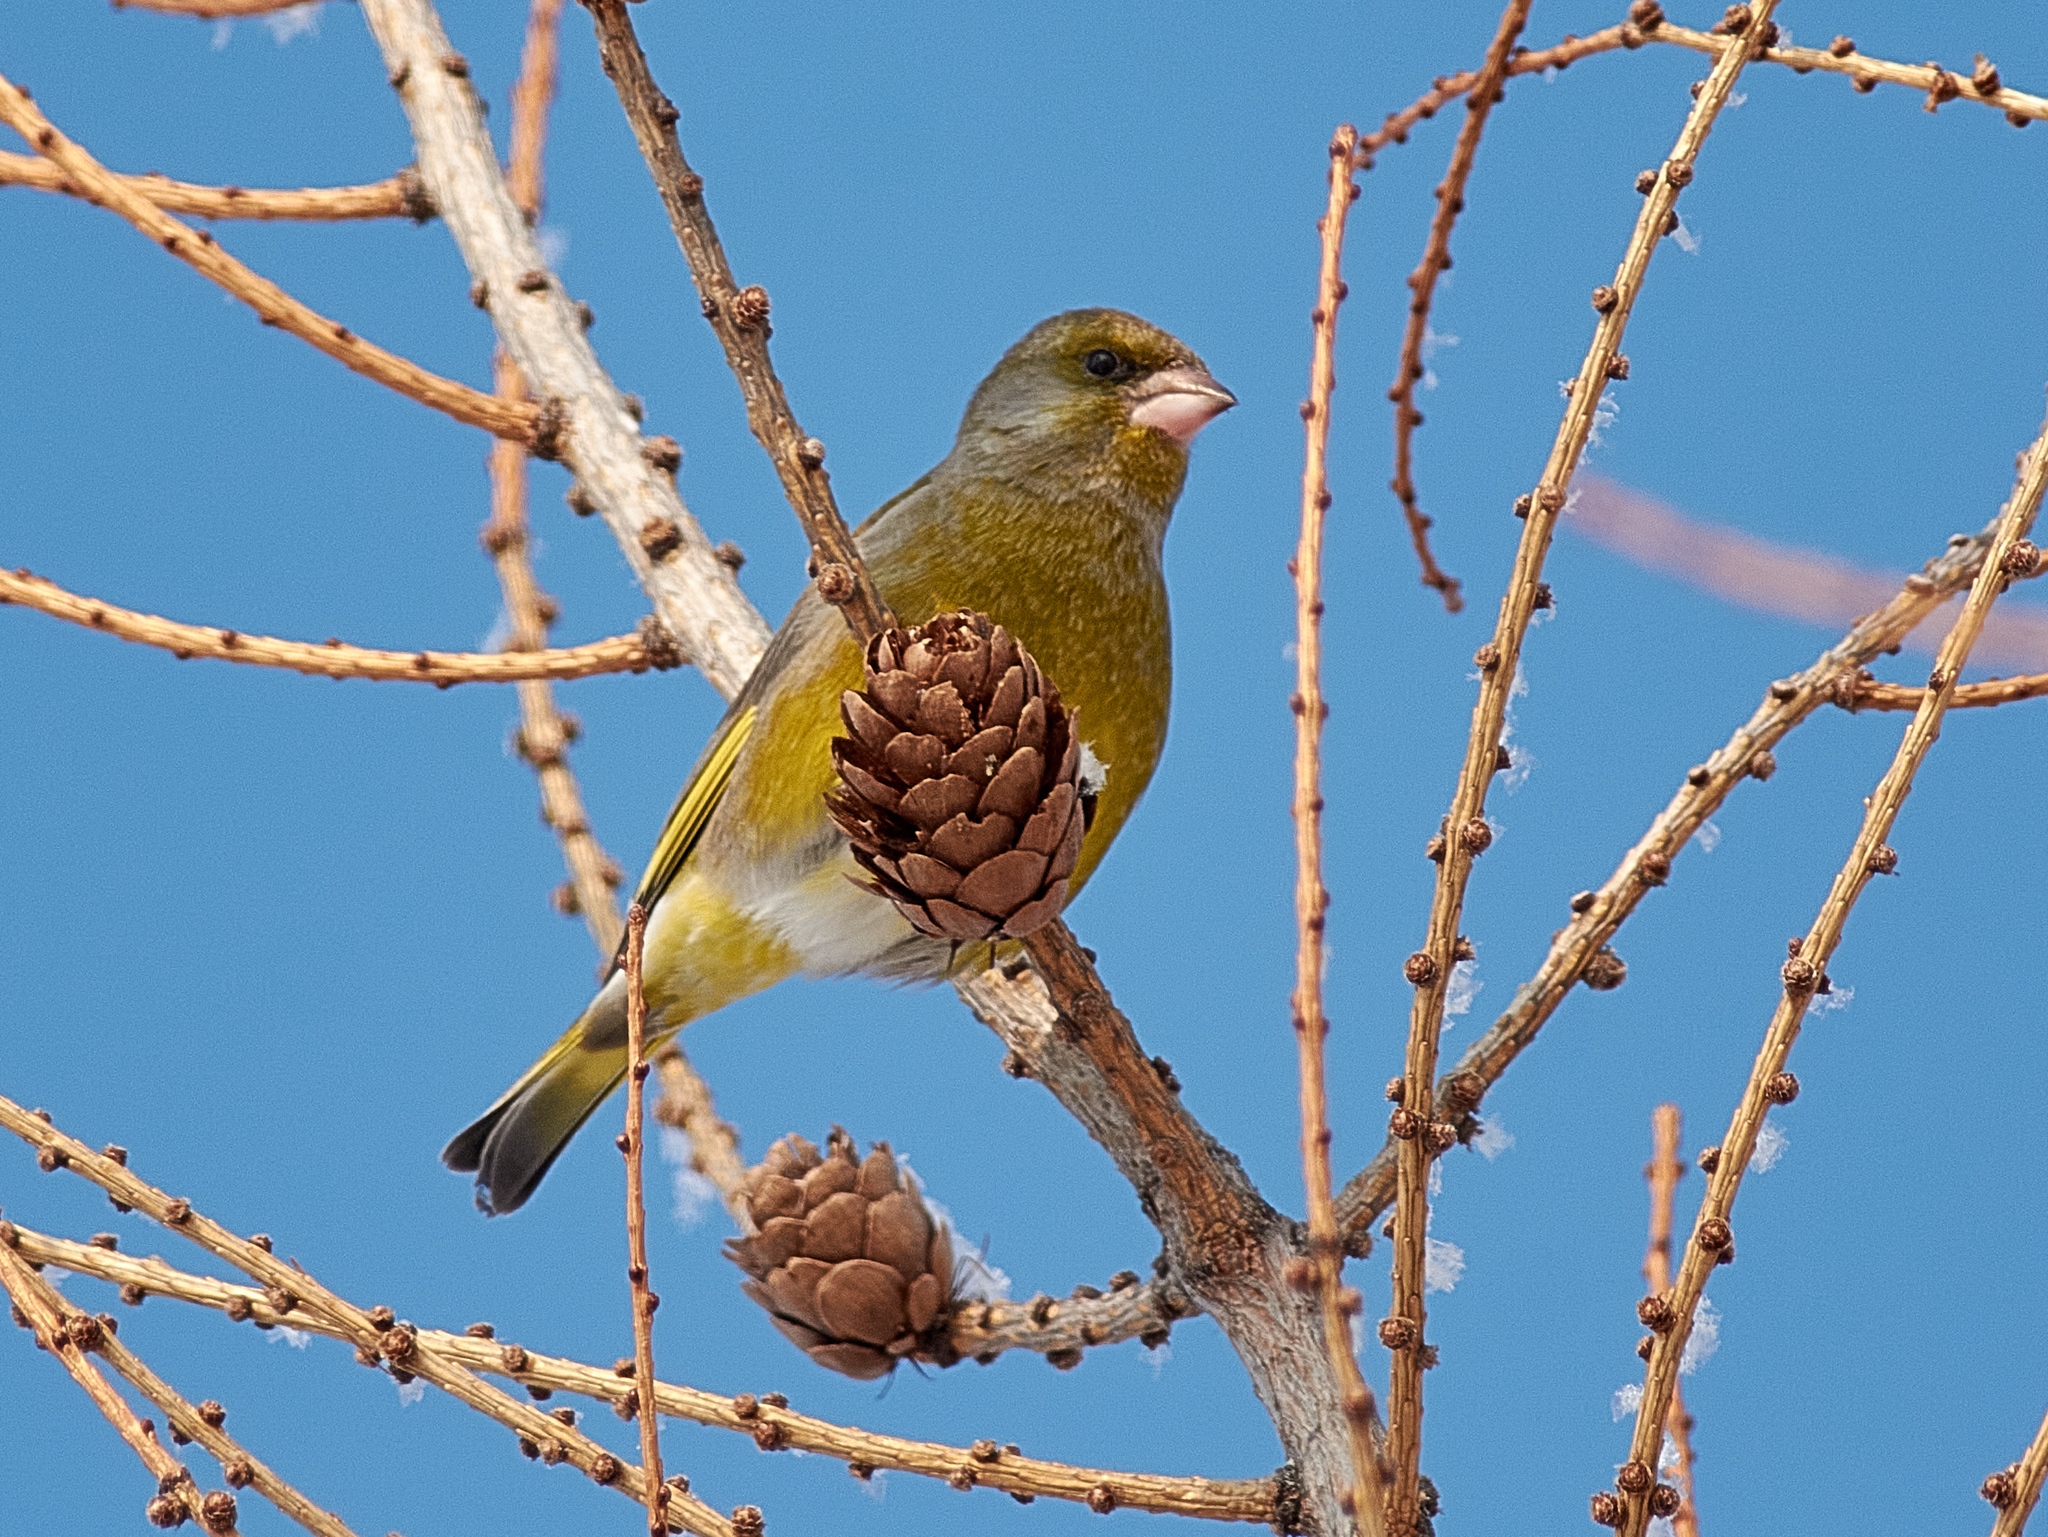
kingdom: Plantae
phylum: Tracheophyta
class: Liliopsida
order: Poales
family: Poaceae
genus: Chloris
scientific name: Chloris chloris
